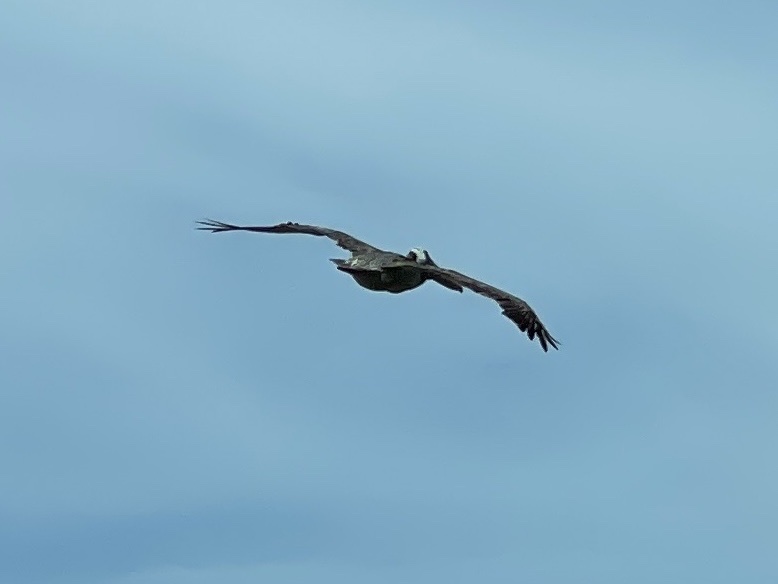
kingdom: Animalia
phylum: Chordata
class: Aves
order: Pelecaniformes
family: Pelecanidae
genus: Pelecanus
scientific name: Pelecanus occidentalis
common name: Brown pelican
